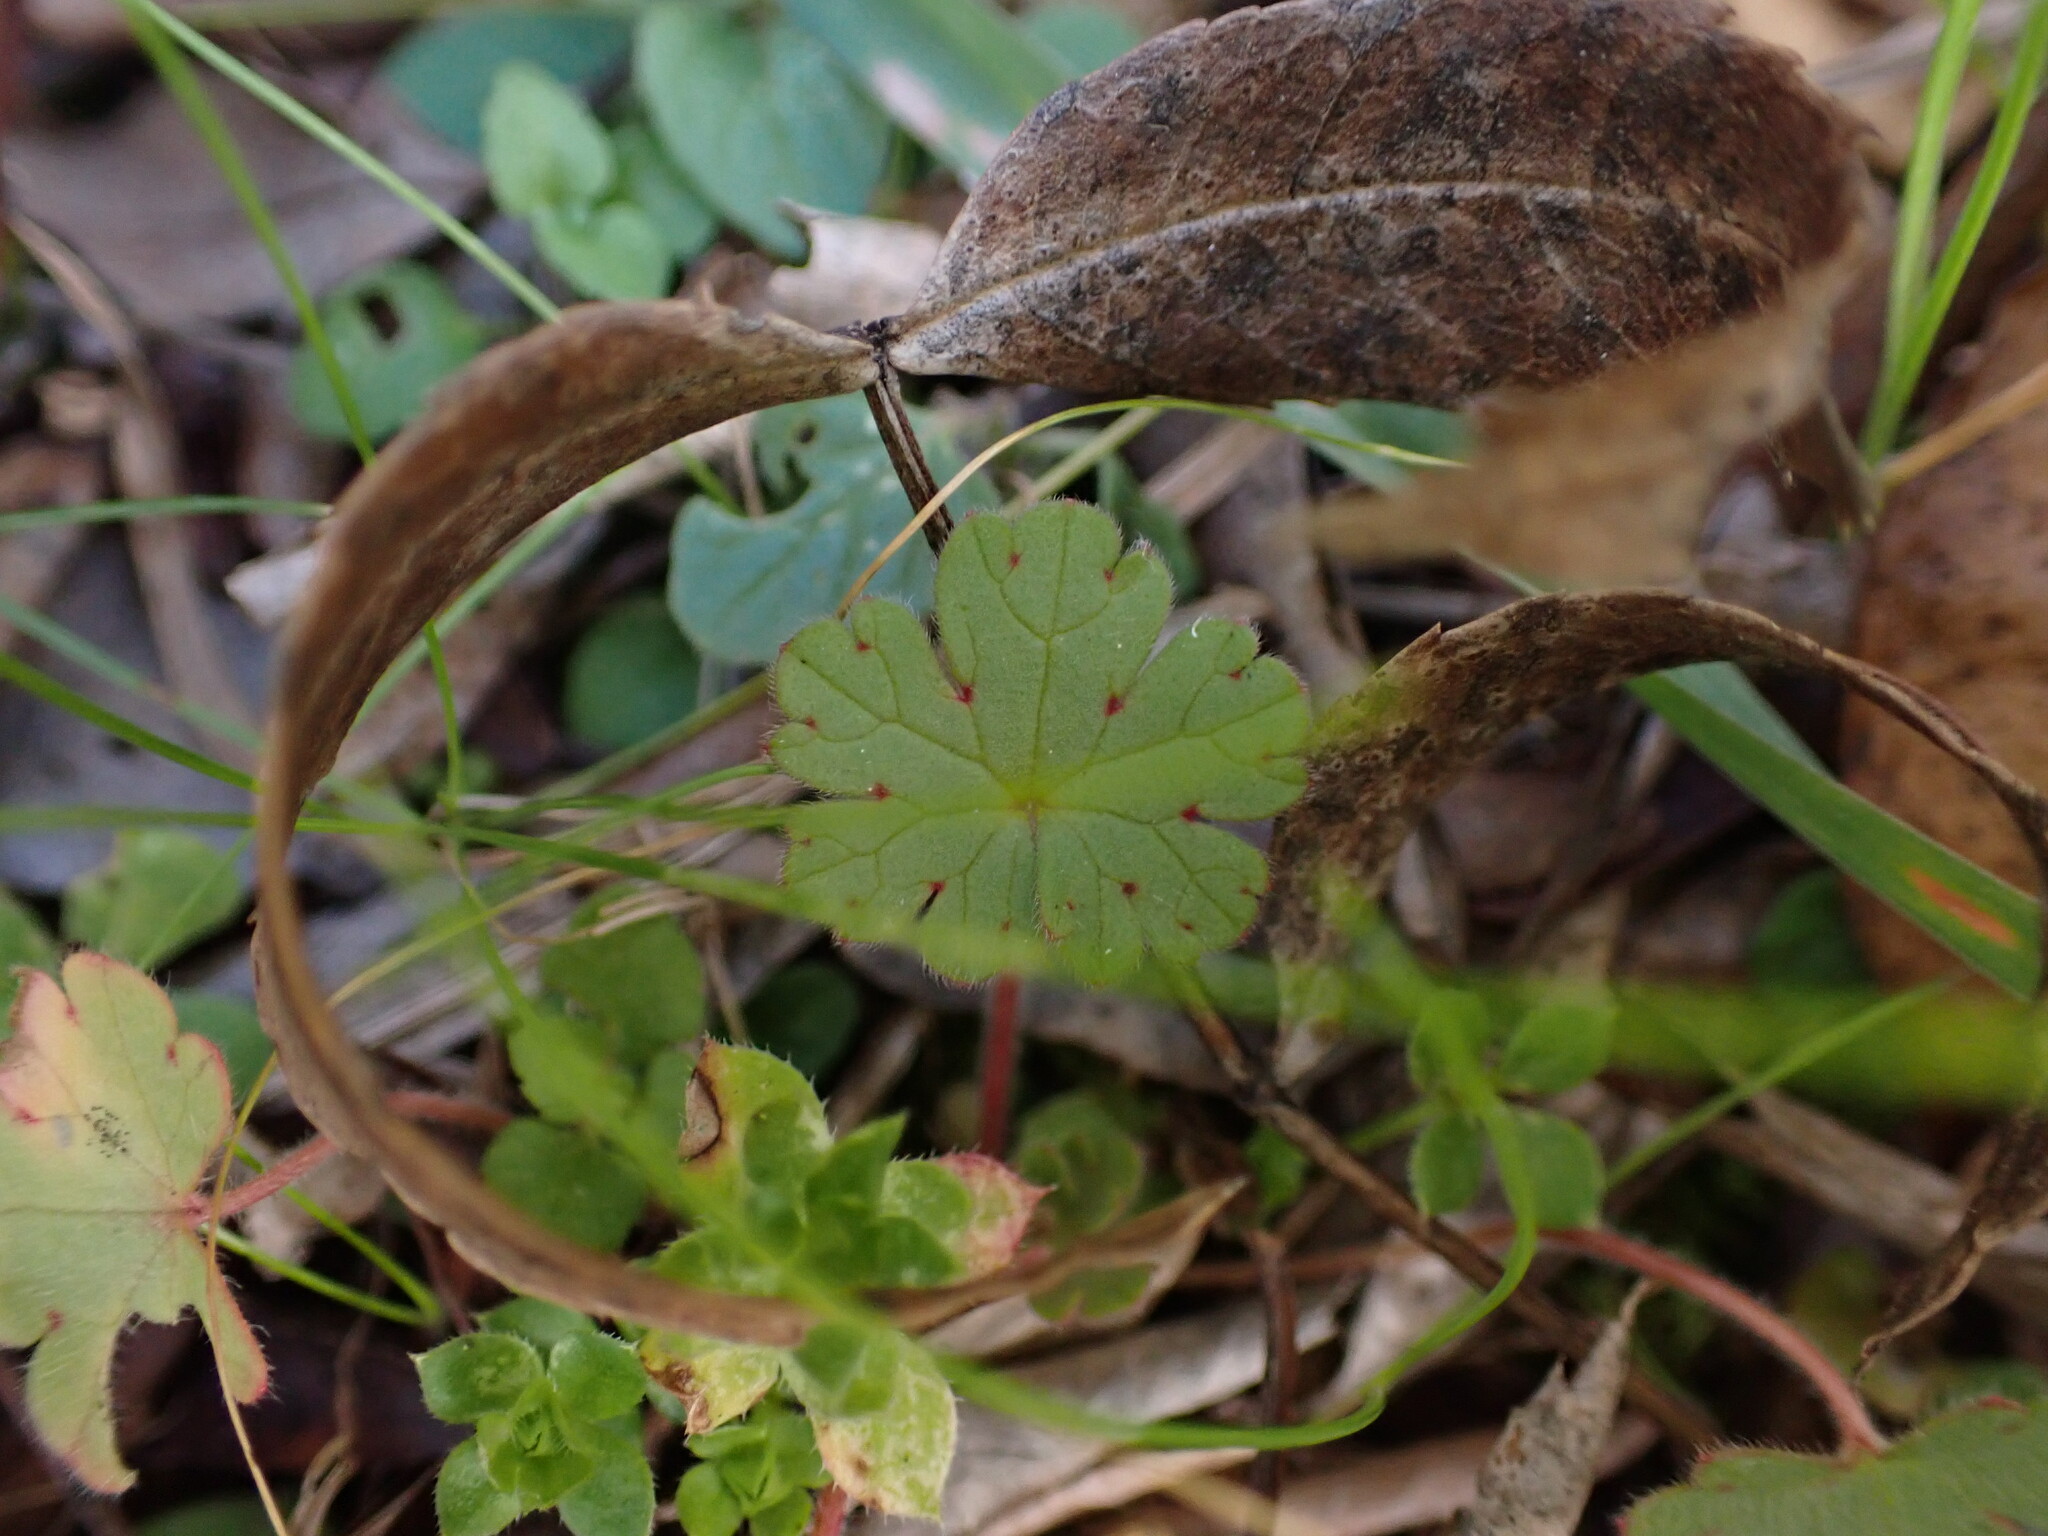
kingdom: Plantae
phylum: Tracheophyta
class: Magnoliopsida
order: Geraniales
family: Geraniaceae
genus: Geranium
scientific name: Geranium rotundifolium
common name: Round-leaved crane's-bill
